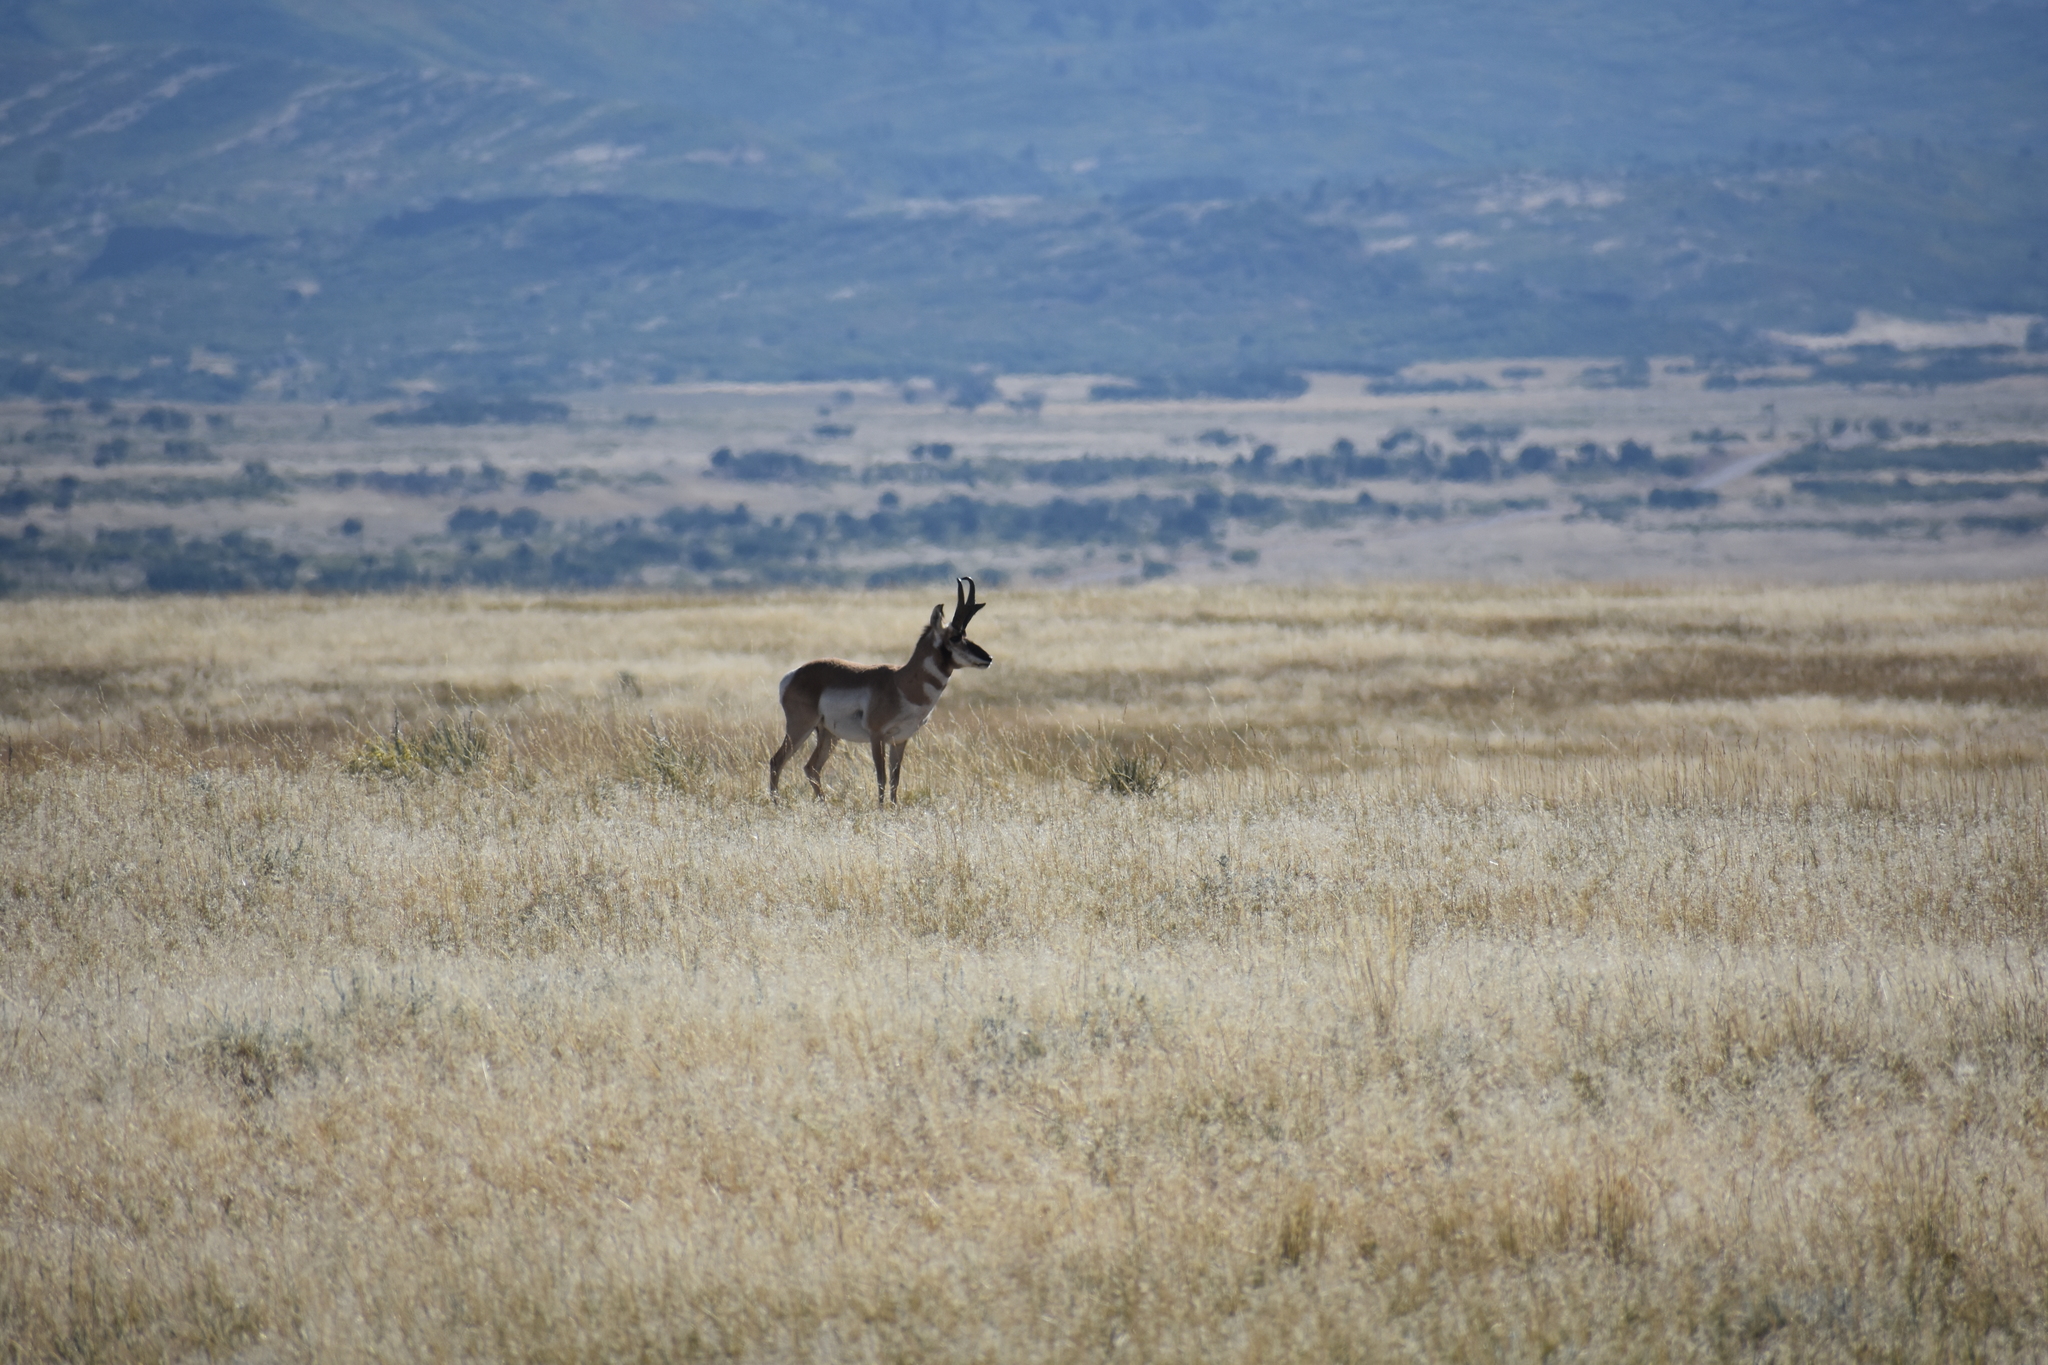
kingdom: Animalia
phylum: Chordata
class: Mammalia
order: Artiodactyla
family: Antilocapridae
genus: Antilocapra
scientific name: Antilocapra americana
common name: Pronghorn
